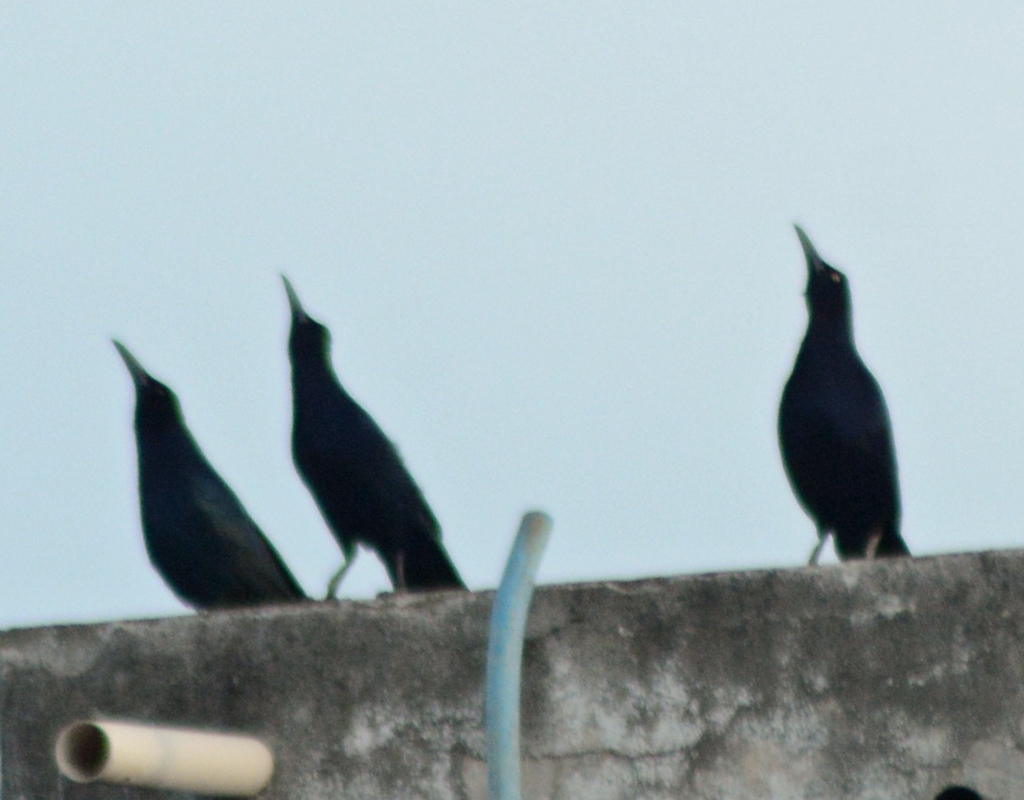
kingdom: Animalia
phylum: Chordata
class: Aves
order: Passeriformes
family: Icteridae
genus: Quiscalus
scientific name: Quiscalus mexicanus
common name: Great-tailed grackle
